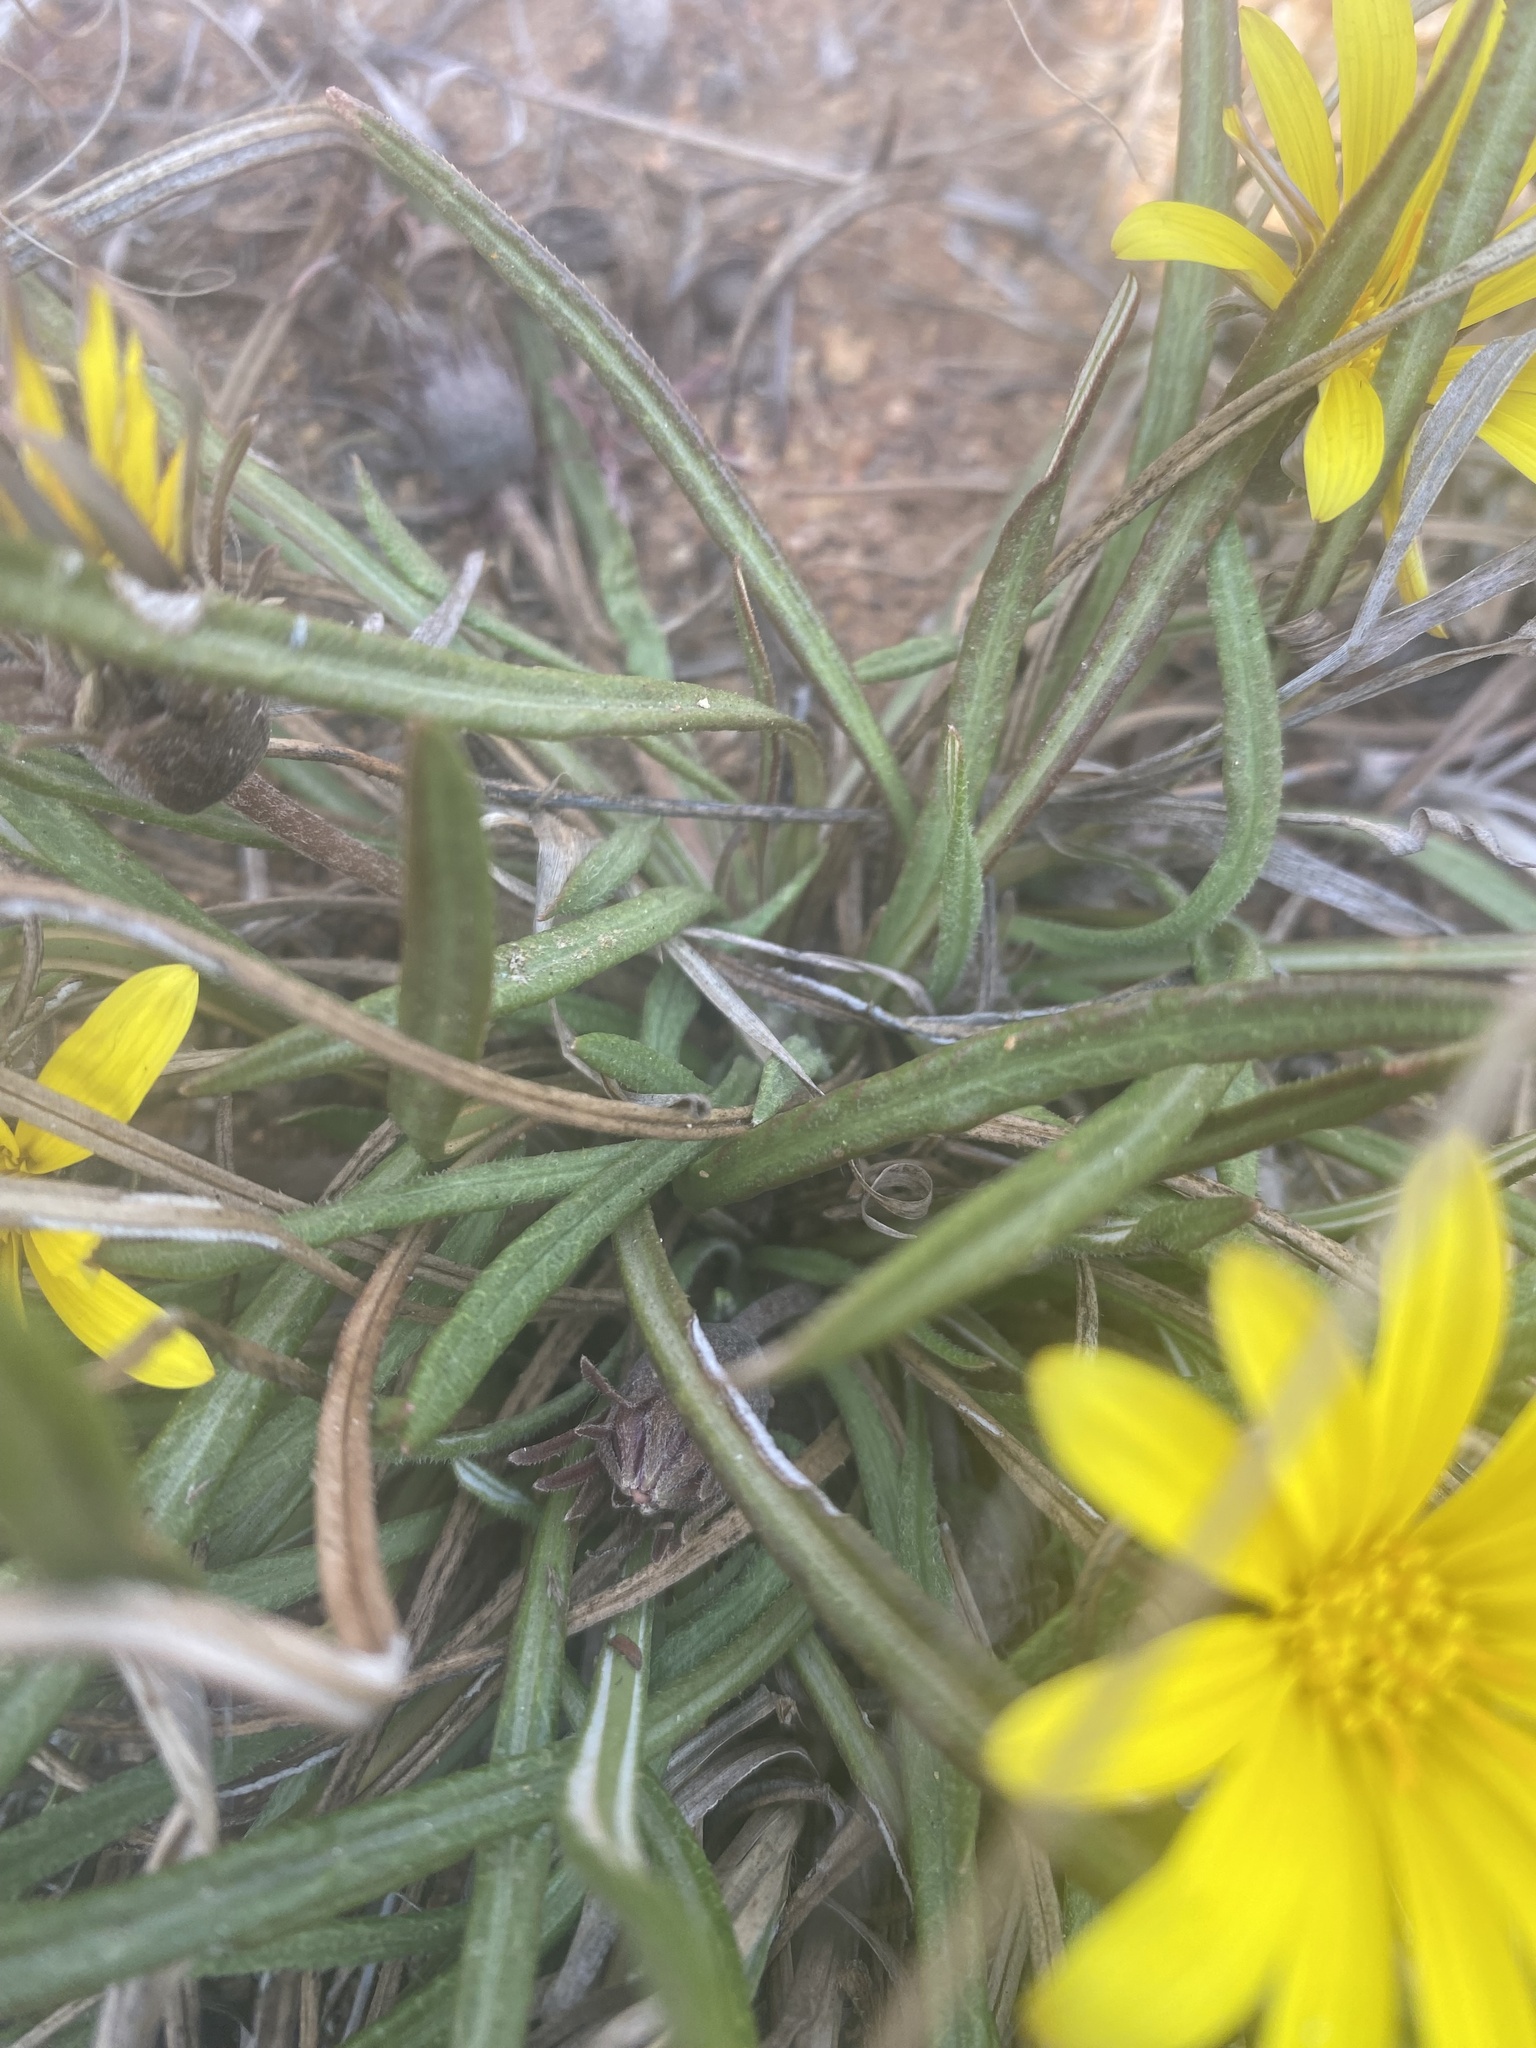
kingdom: Plantae
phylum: Tracheophyta
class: Magnoliopsida
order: Asterales
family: Asteraceae
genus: Gazania
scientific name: Gazania krebsiana
